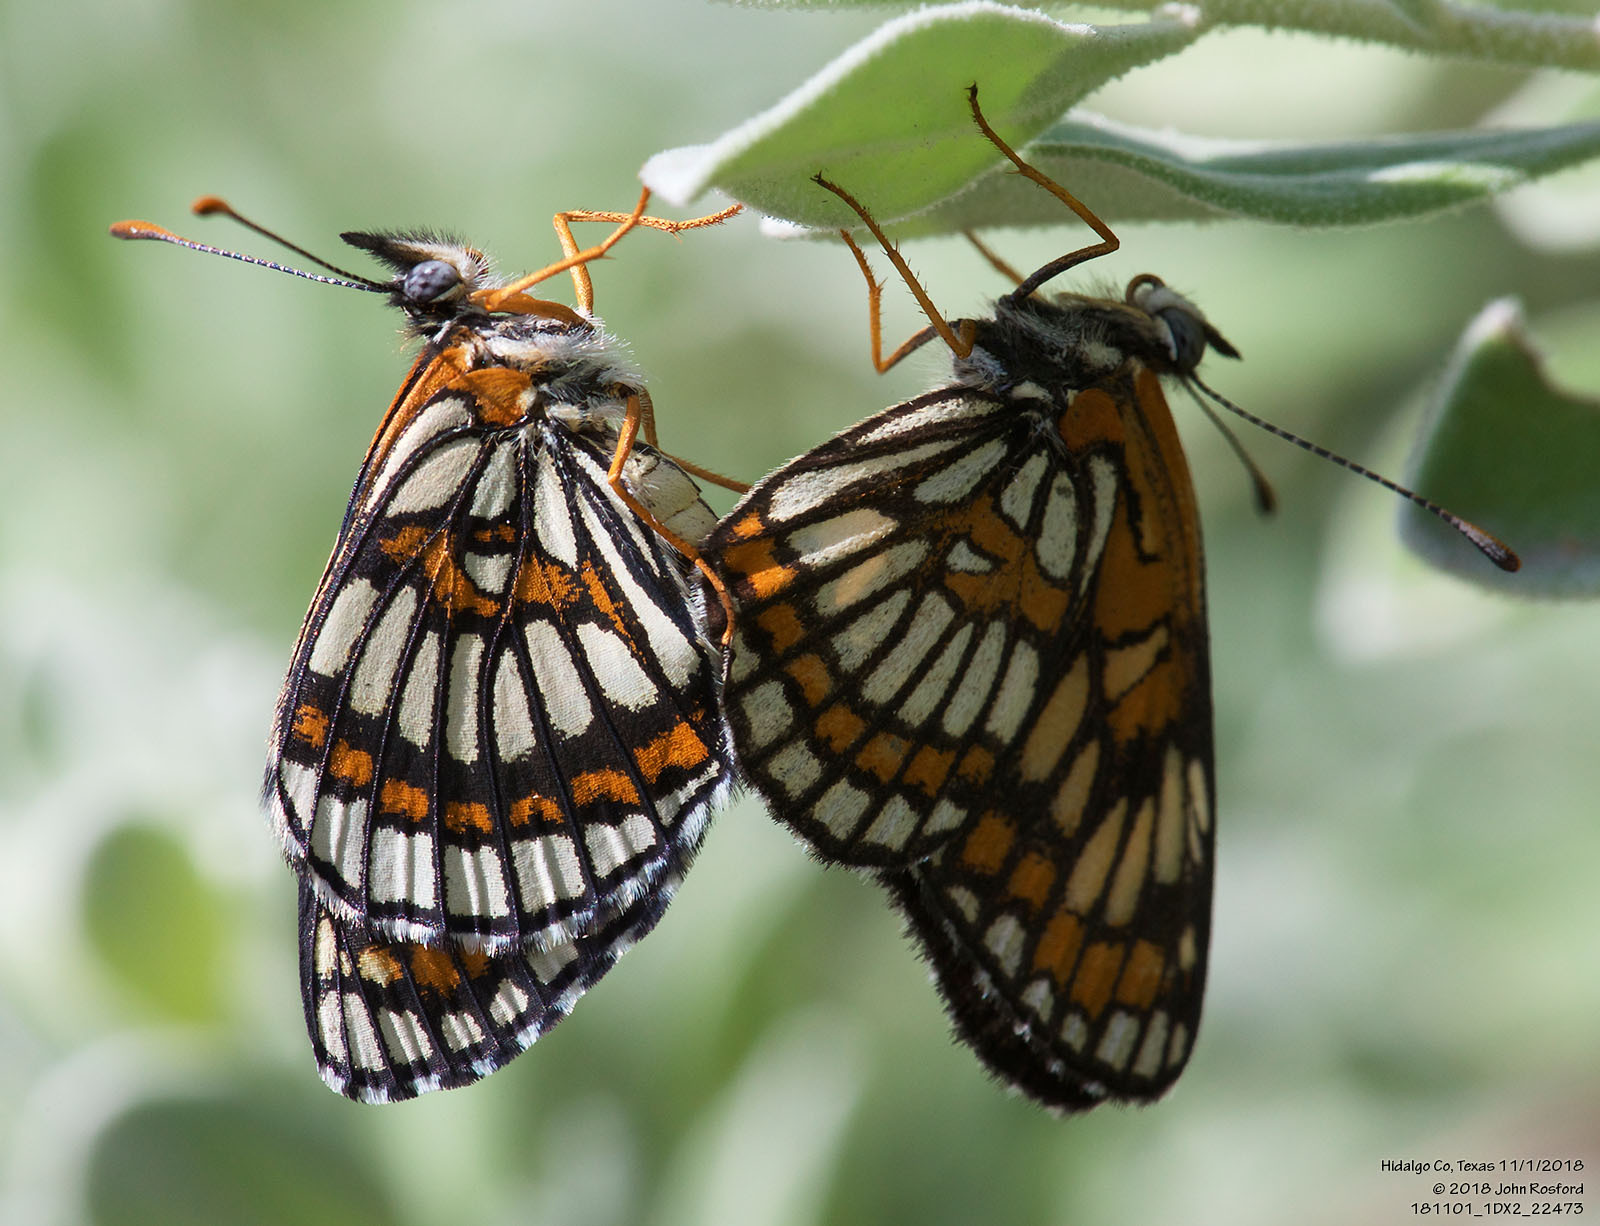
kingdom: Animalia
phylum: Arthropoda
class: Insecta
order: Lepidoptera
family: Nymphalidae
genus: Thessalia
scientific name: Thessalia theona
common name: Nymphalid moth
